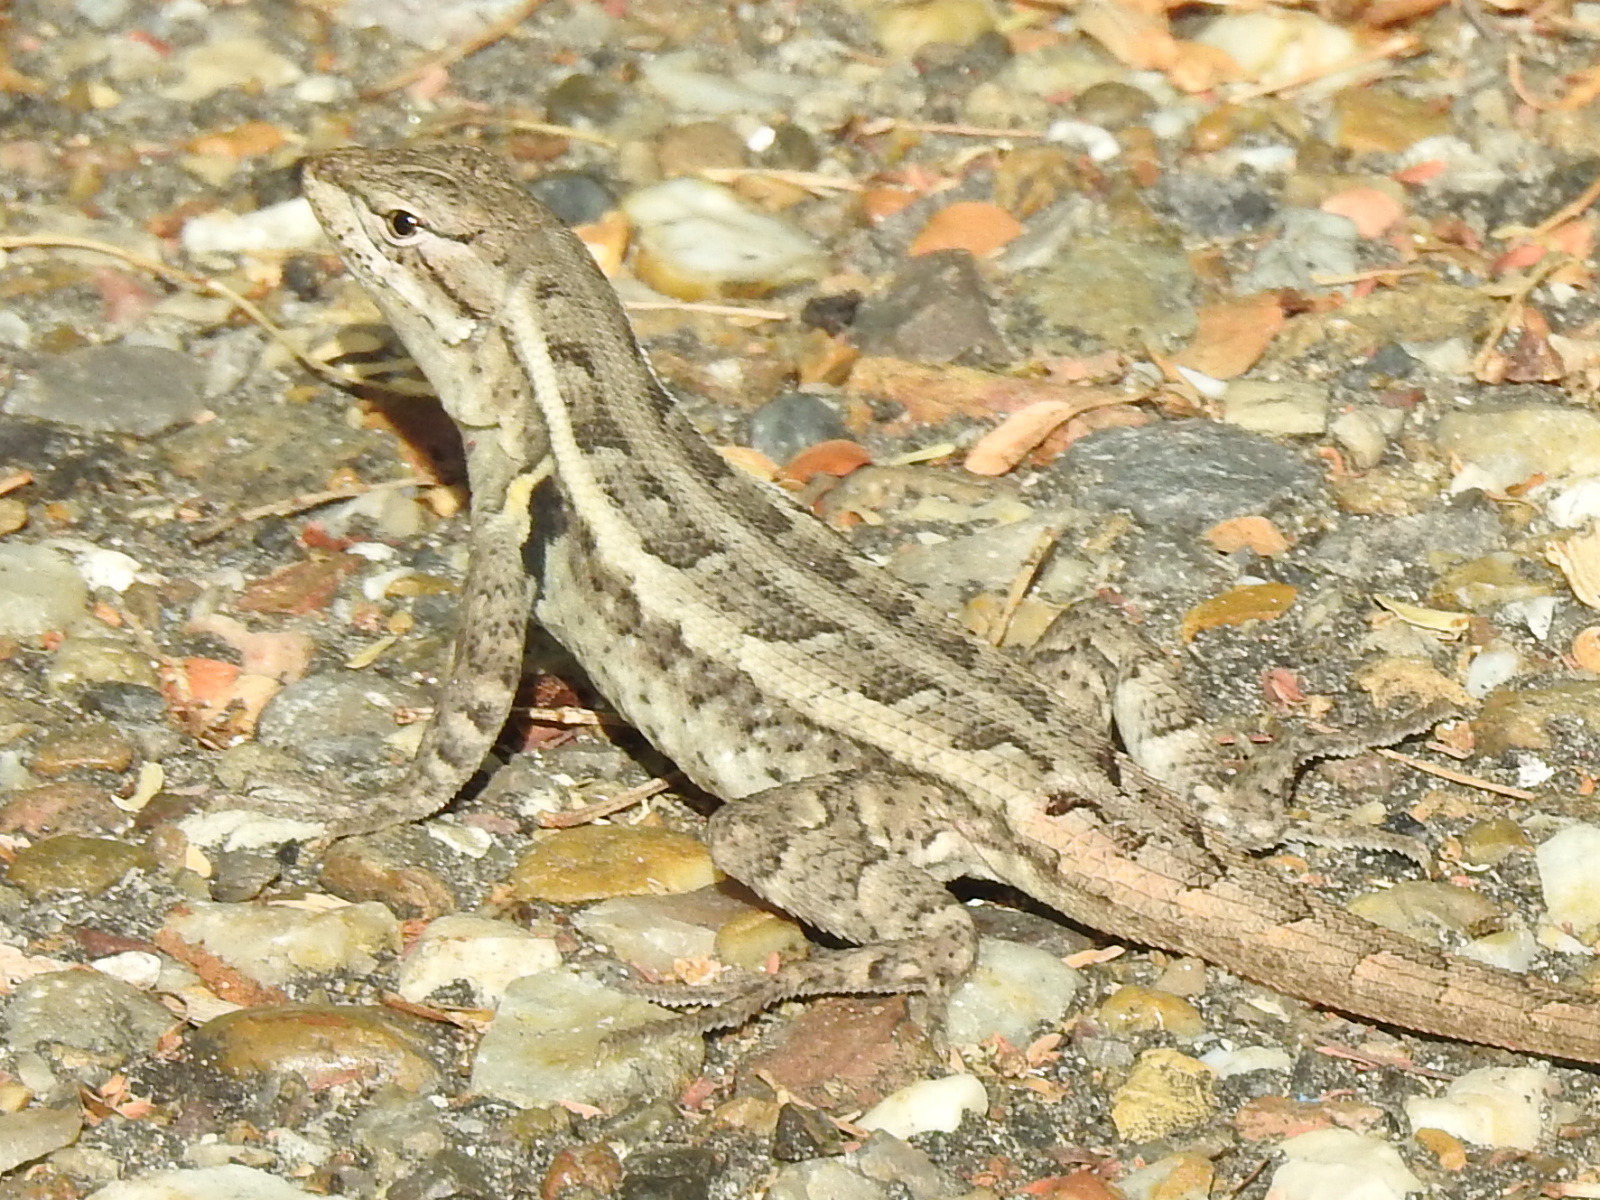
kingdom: Animalia
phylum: Chordata
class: Squamata
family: Phrynosomatidae
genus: Sceloporus
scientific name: Sceloporus variabilis
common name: Rosebelly lizard
